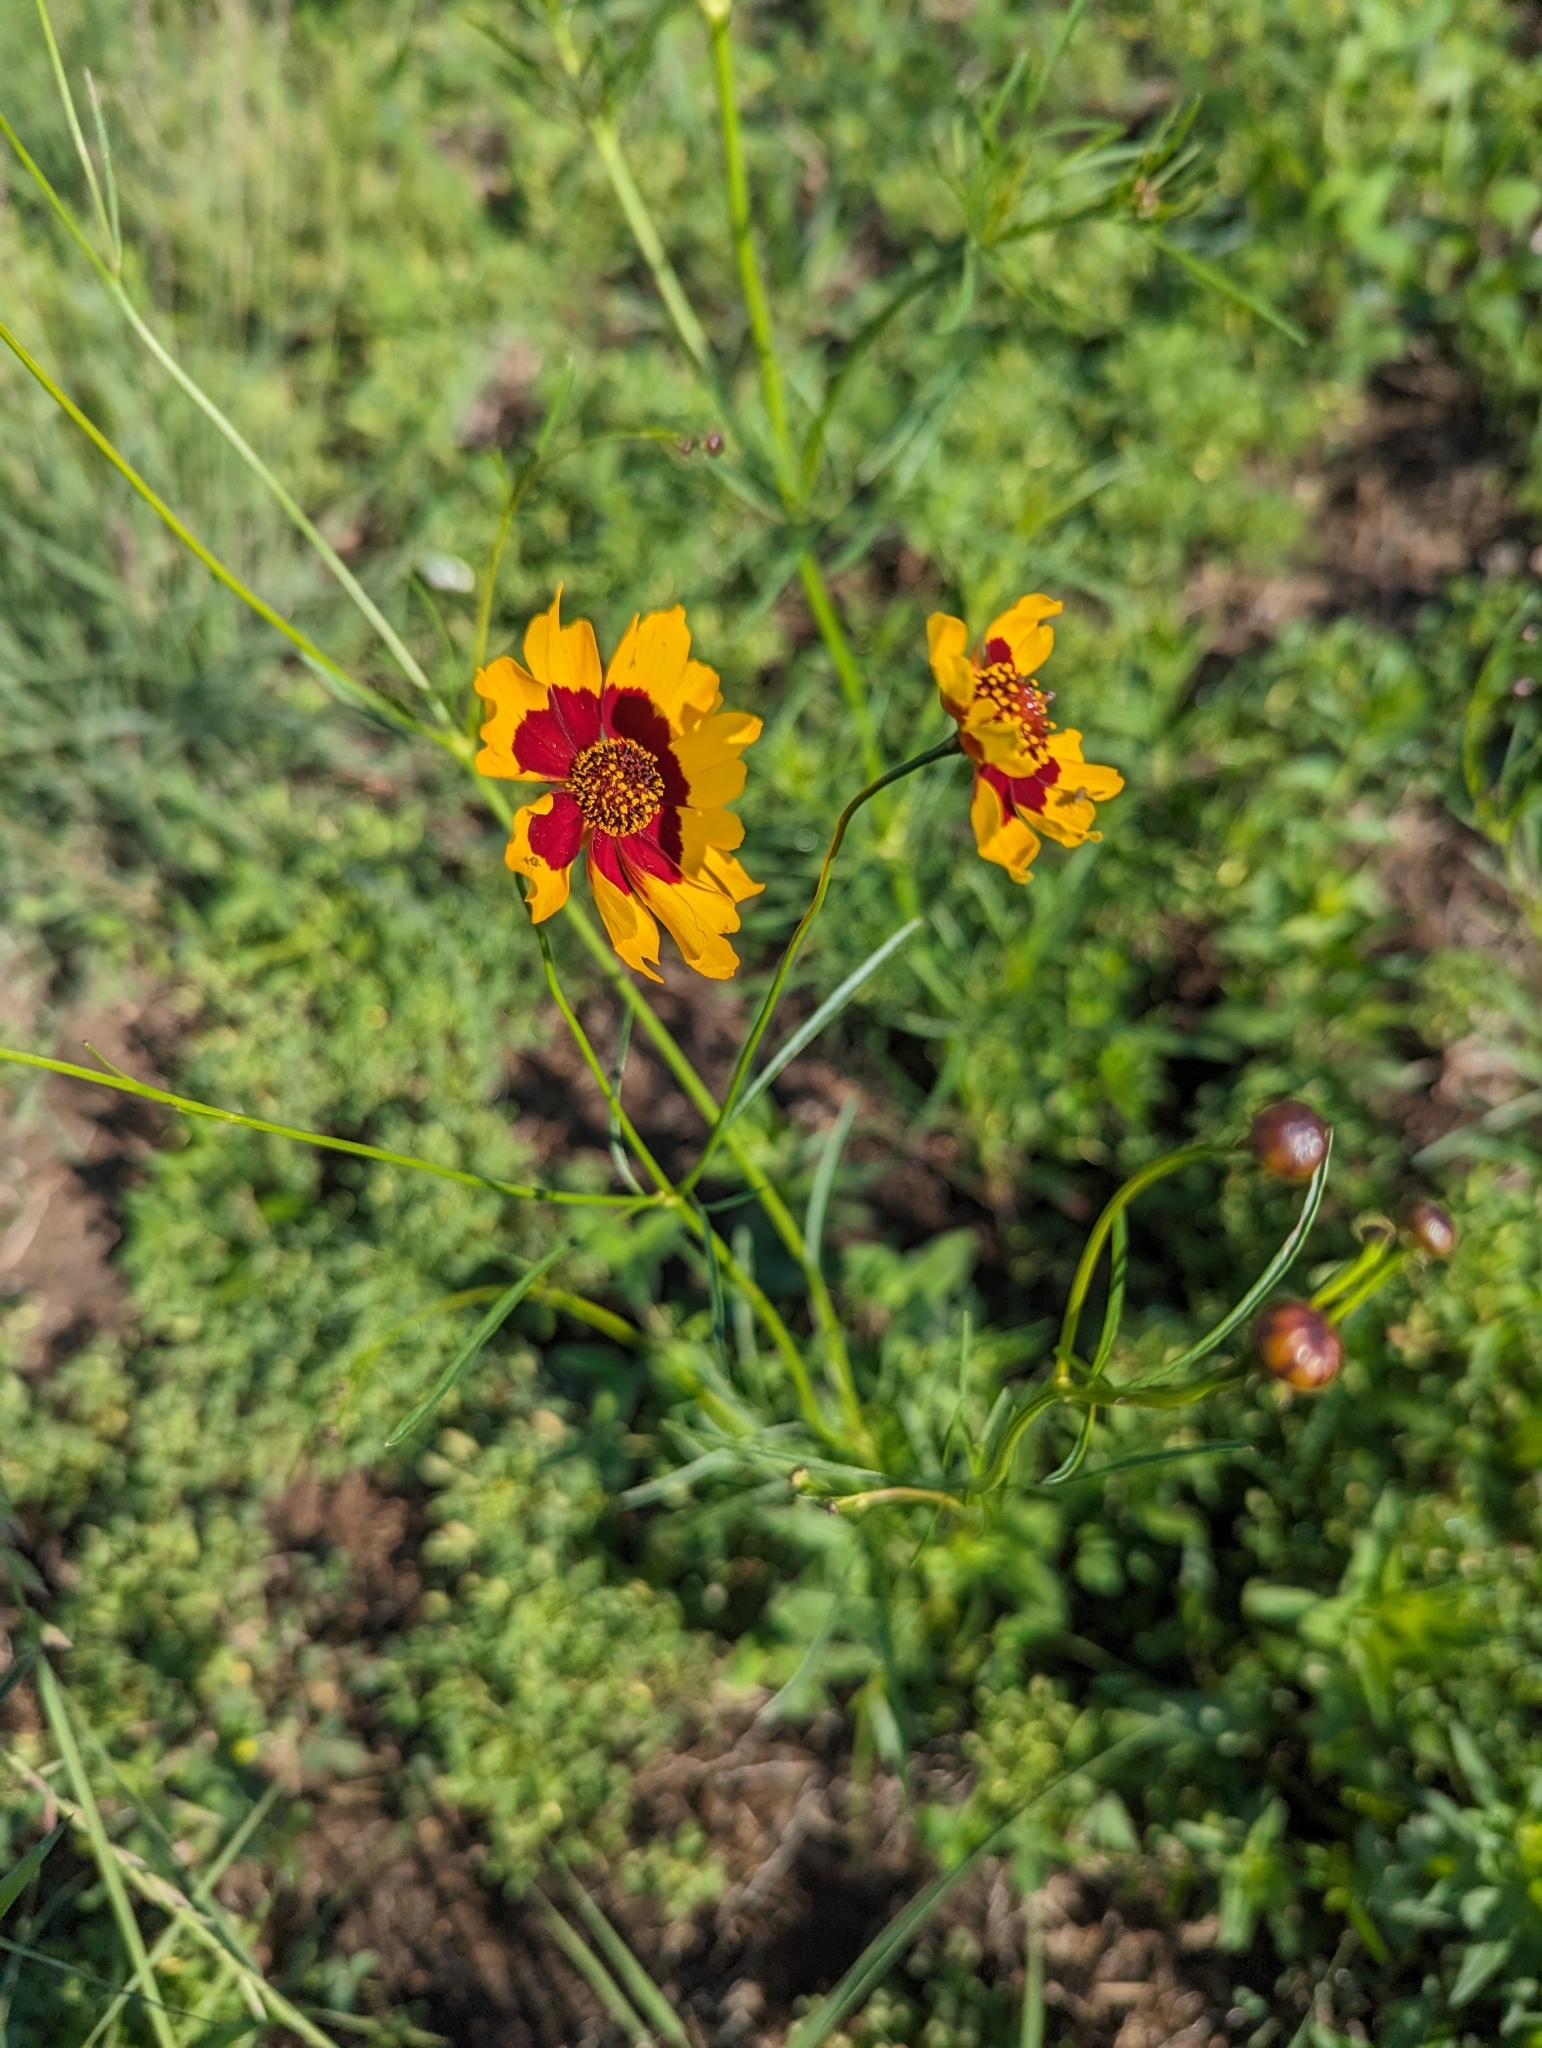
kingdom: Plantae
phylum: Tracheophyta
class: Magnoliopsida
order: Asterales
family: Asteraceae
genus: Coreopsis
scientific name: Coreopsis tinctoria
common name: Garden tickseed
